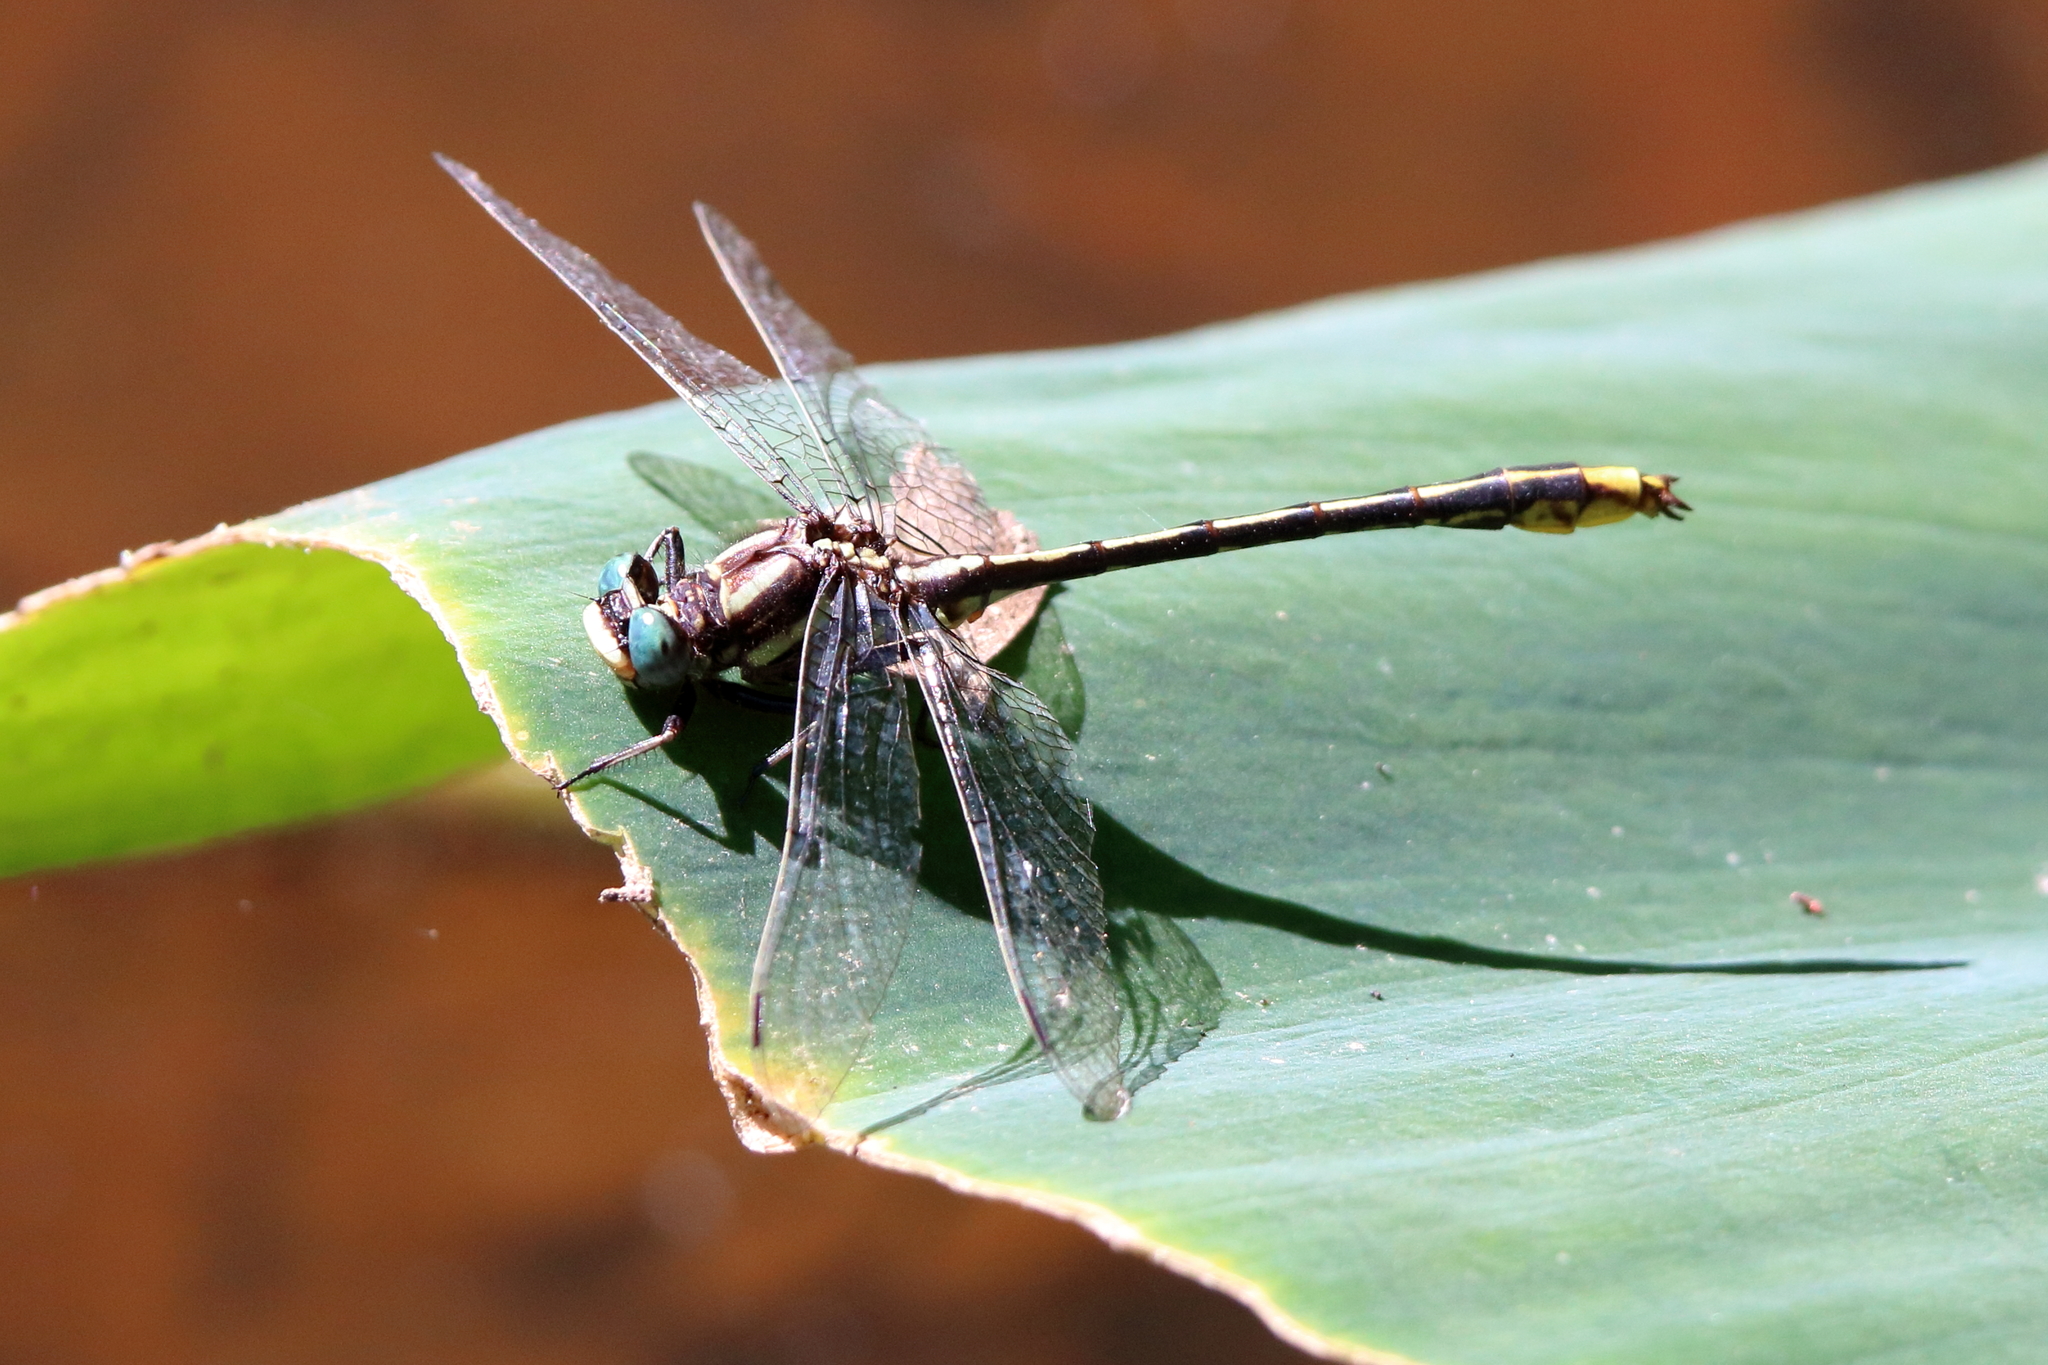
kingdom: Animalia
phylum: Arthropoda
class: Insecta
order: Odonata
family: Gomphidae
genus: Phanogomphus
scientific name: Phanogomphus exilis
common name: Lancet clubtail
